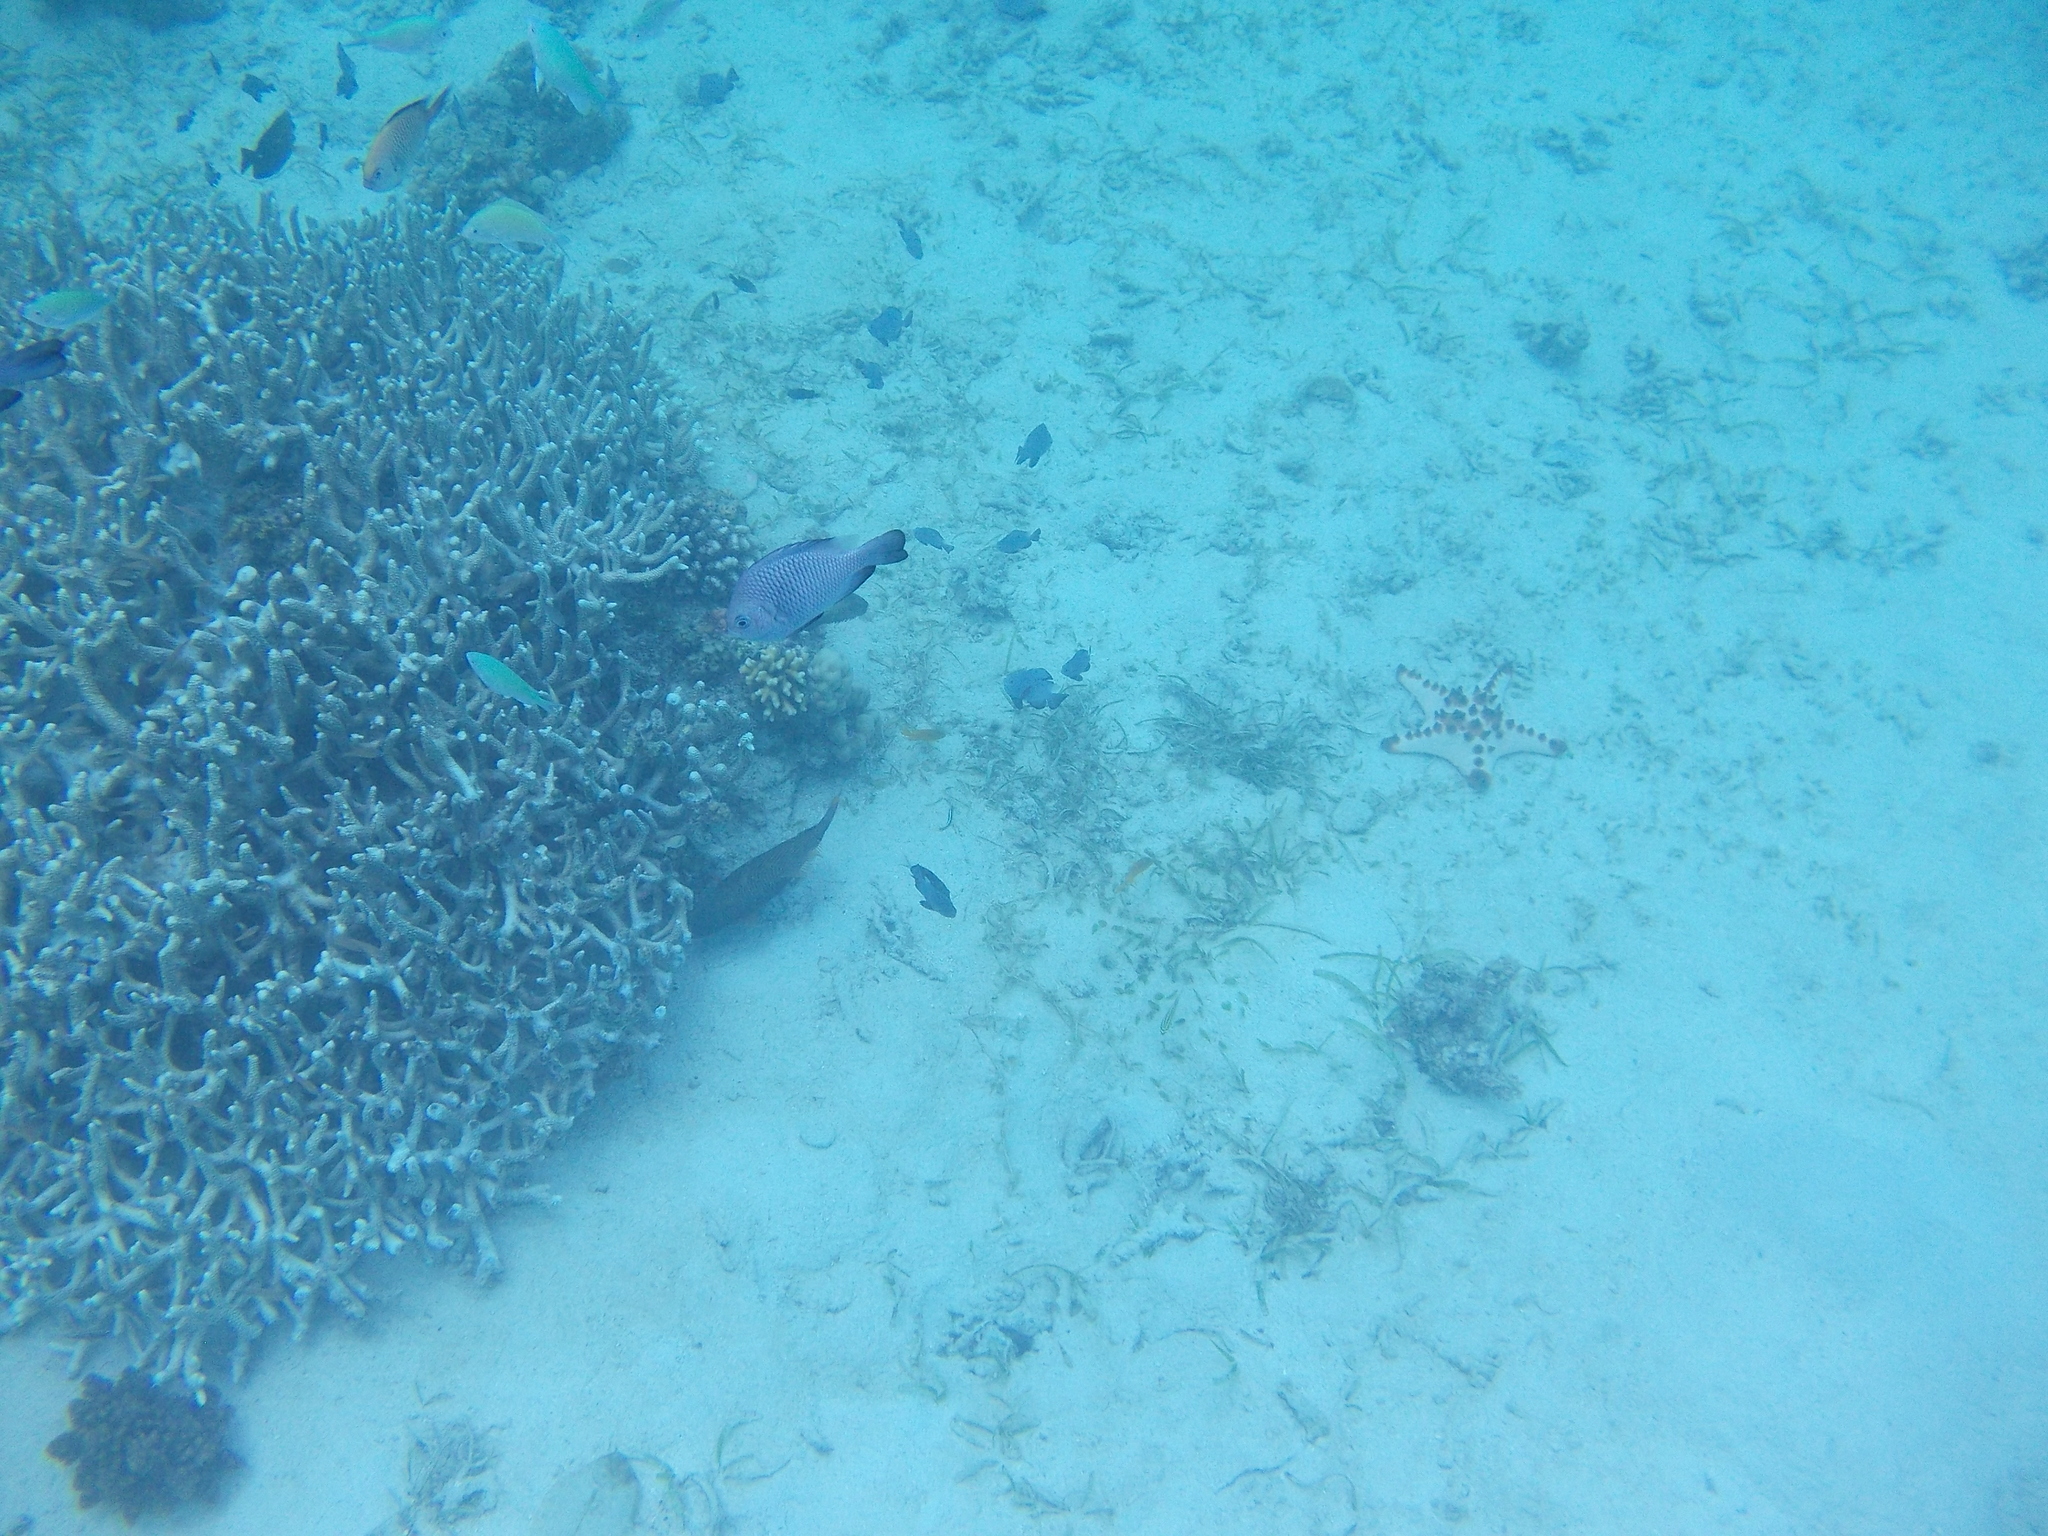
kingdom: Animalia
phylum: Chordata
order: Perciformes
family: Pomacentridae
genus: Dascyllus
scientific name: Dascyllus trimaculatus
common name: Threespot dascyllus
